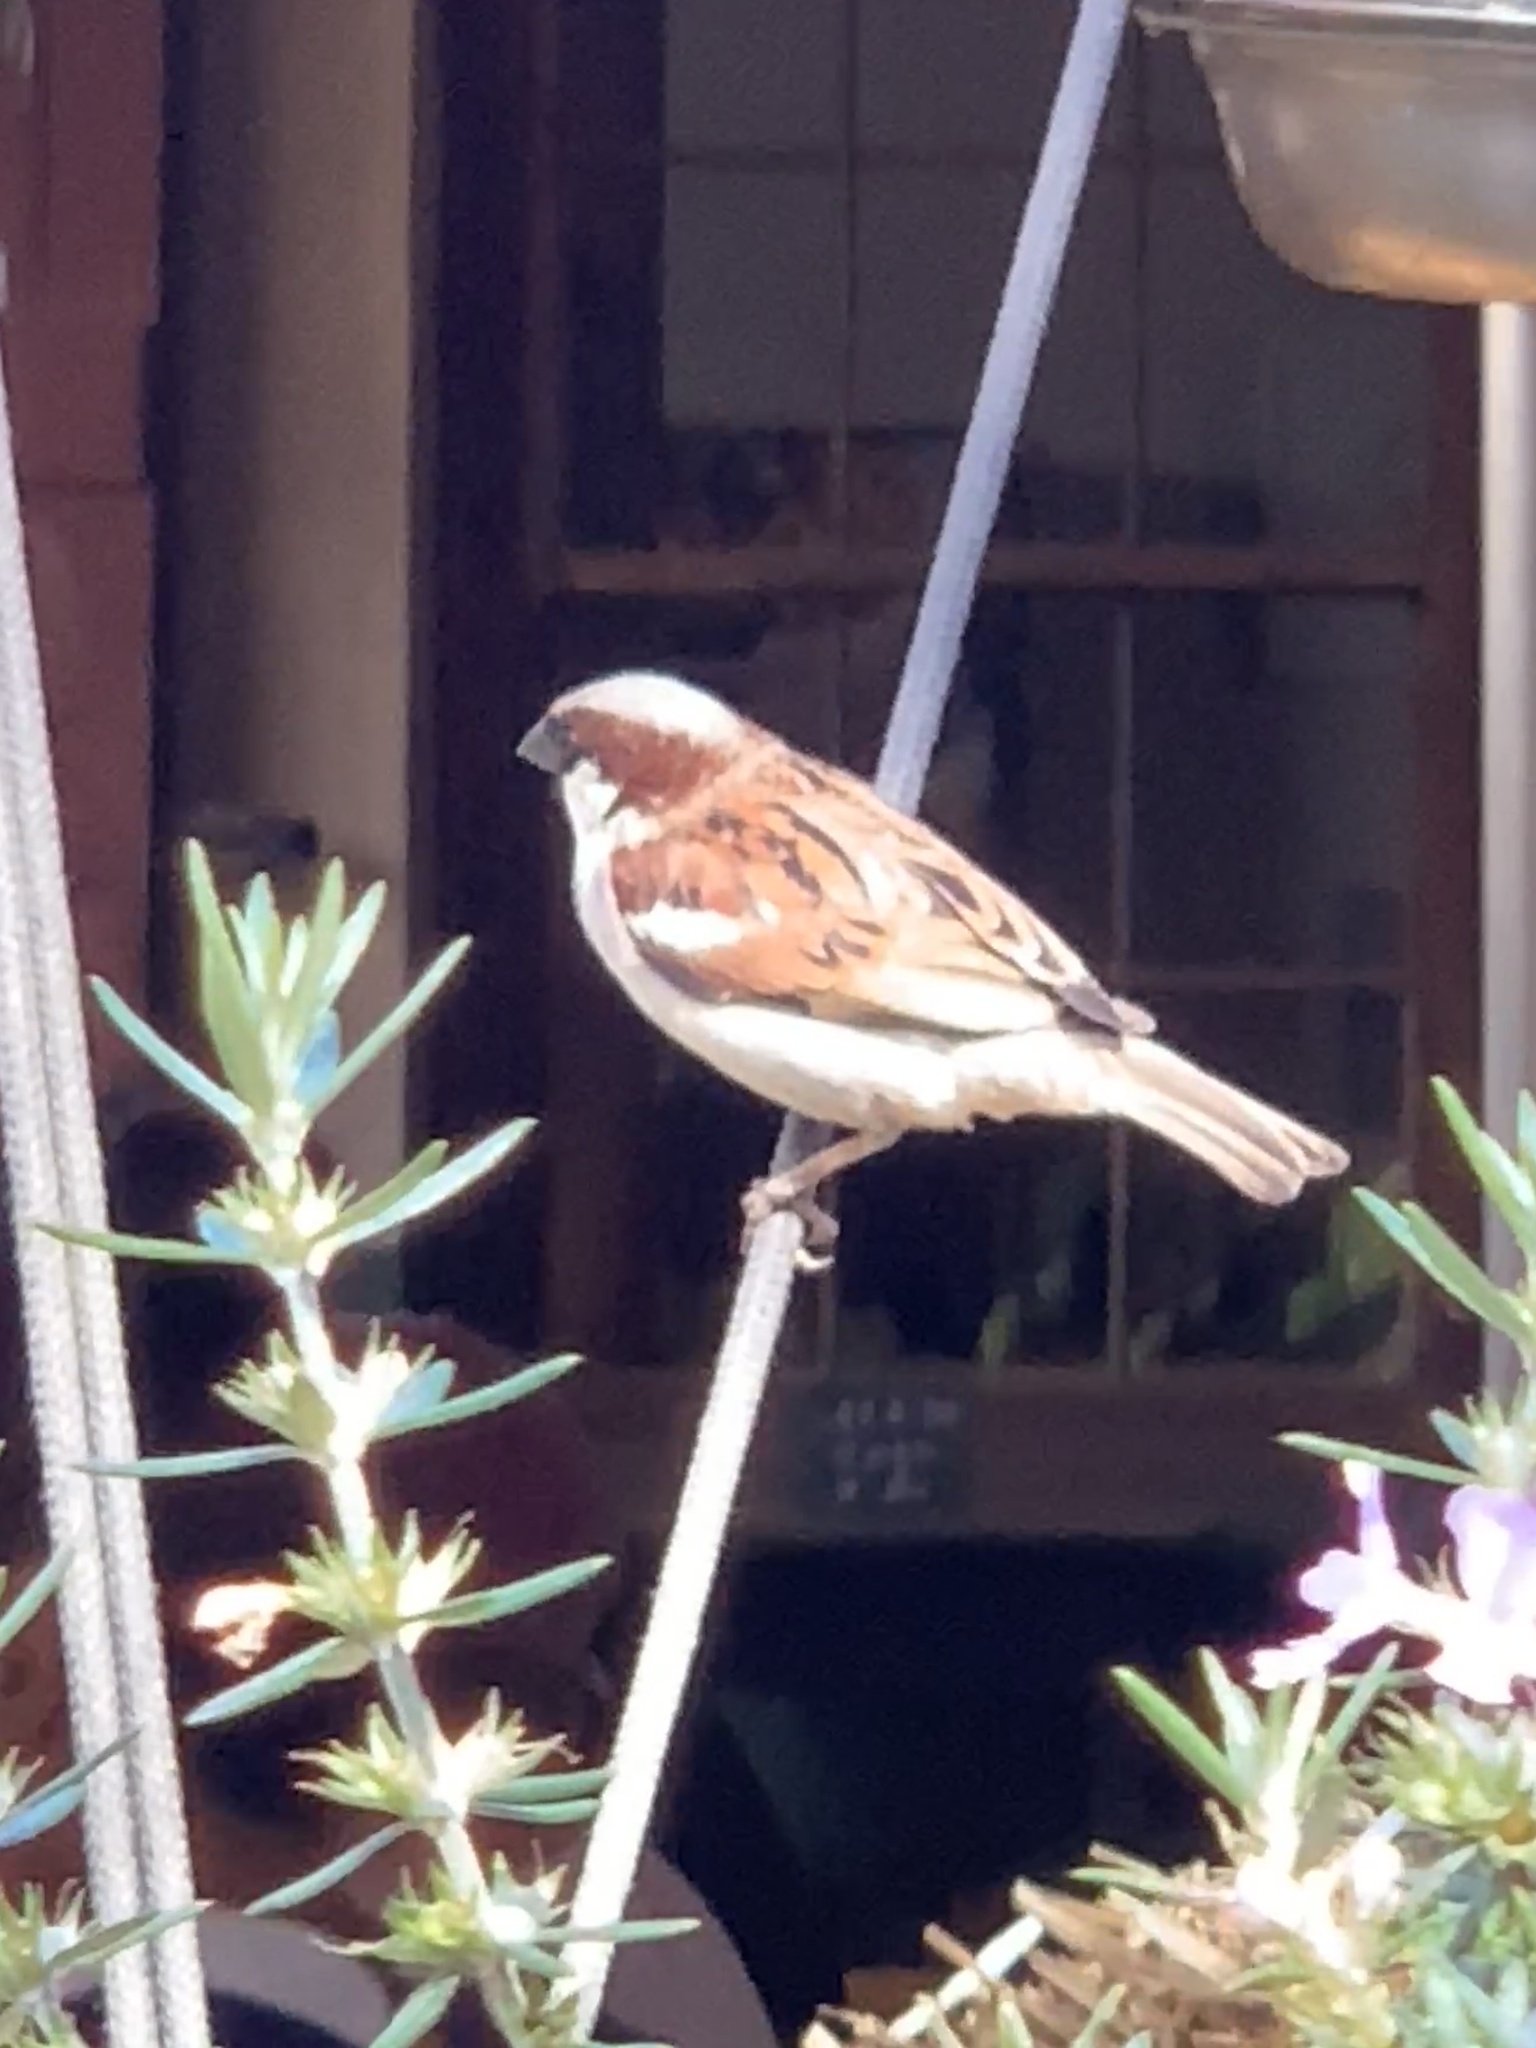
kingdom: Animalia
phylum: Chordata
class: Aves
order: Passeriformes
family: Passeridae
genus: Passer
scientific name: Passer domesticus
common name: House sparrow
